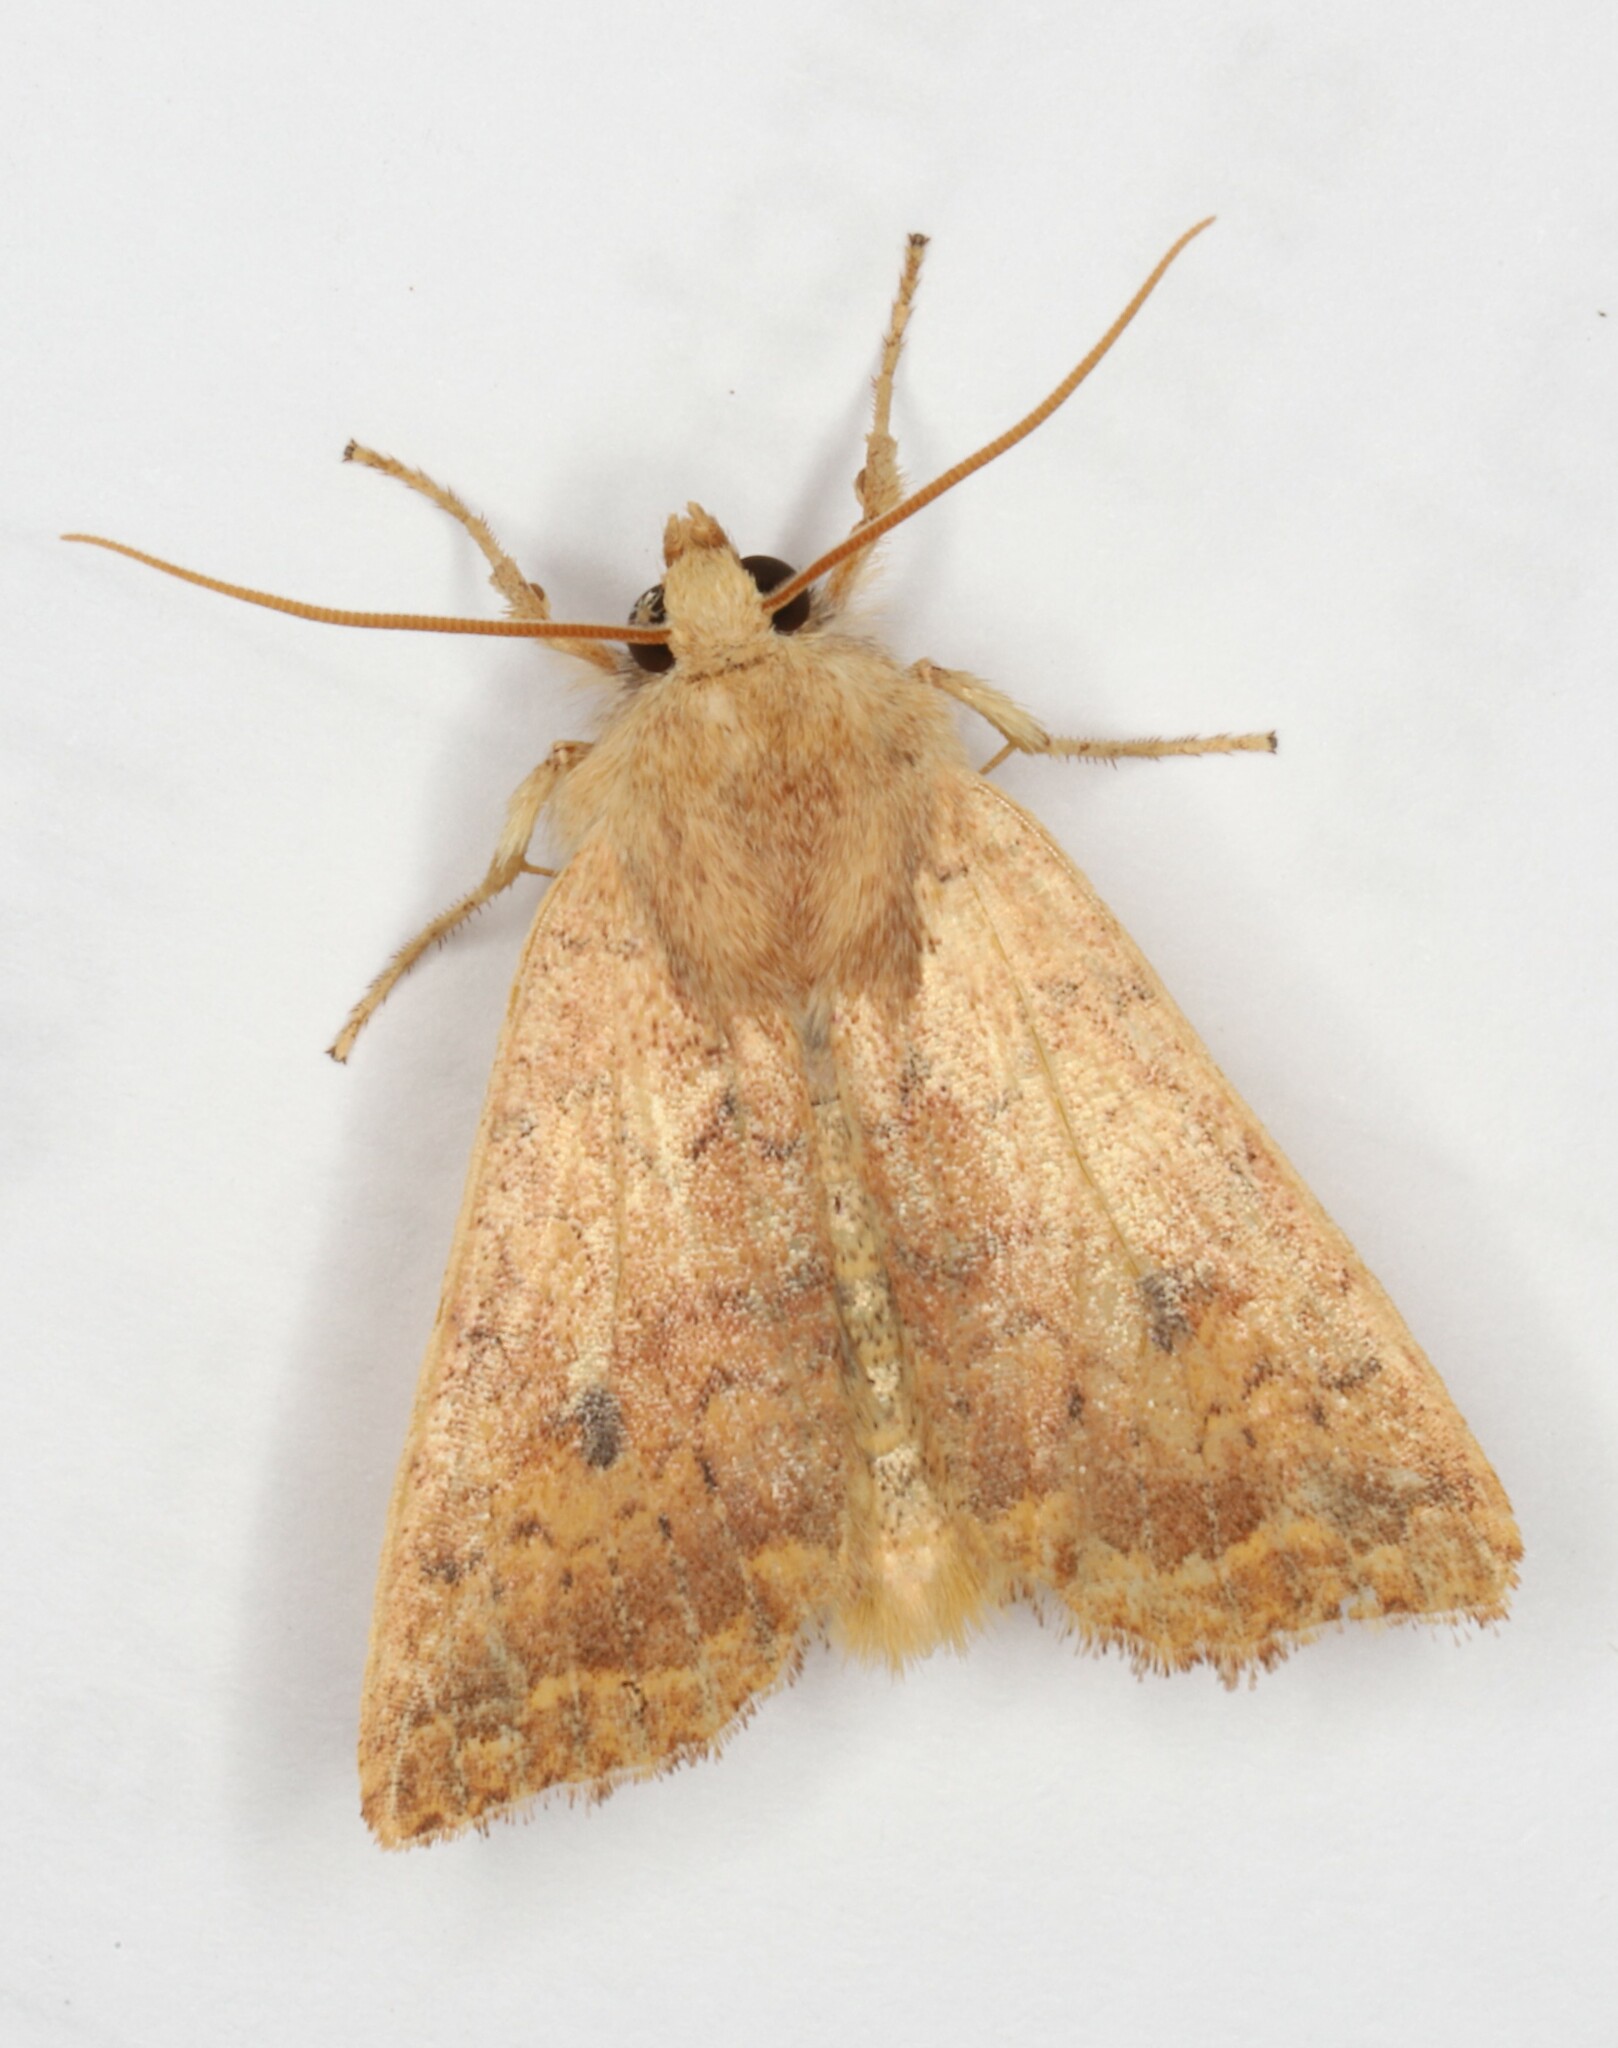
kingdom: Animalia
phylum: Arthropoda
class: Insecta
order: Lepidoptera
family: Noctuidae
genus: Agrochola
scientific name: Agrochola bicolorago
